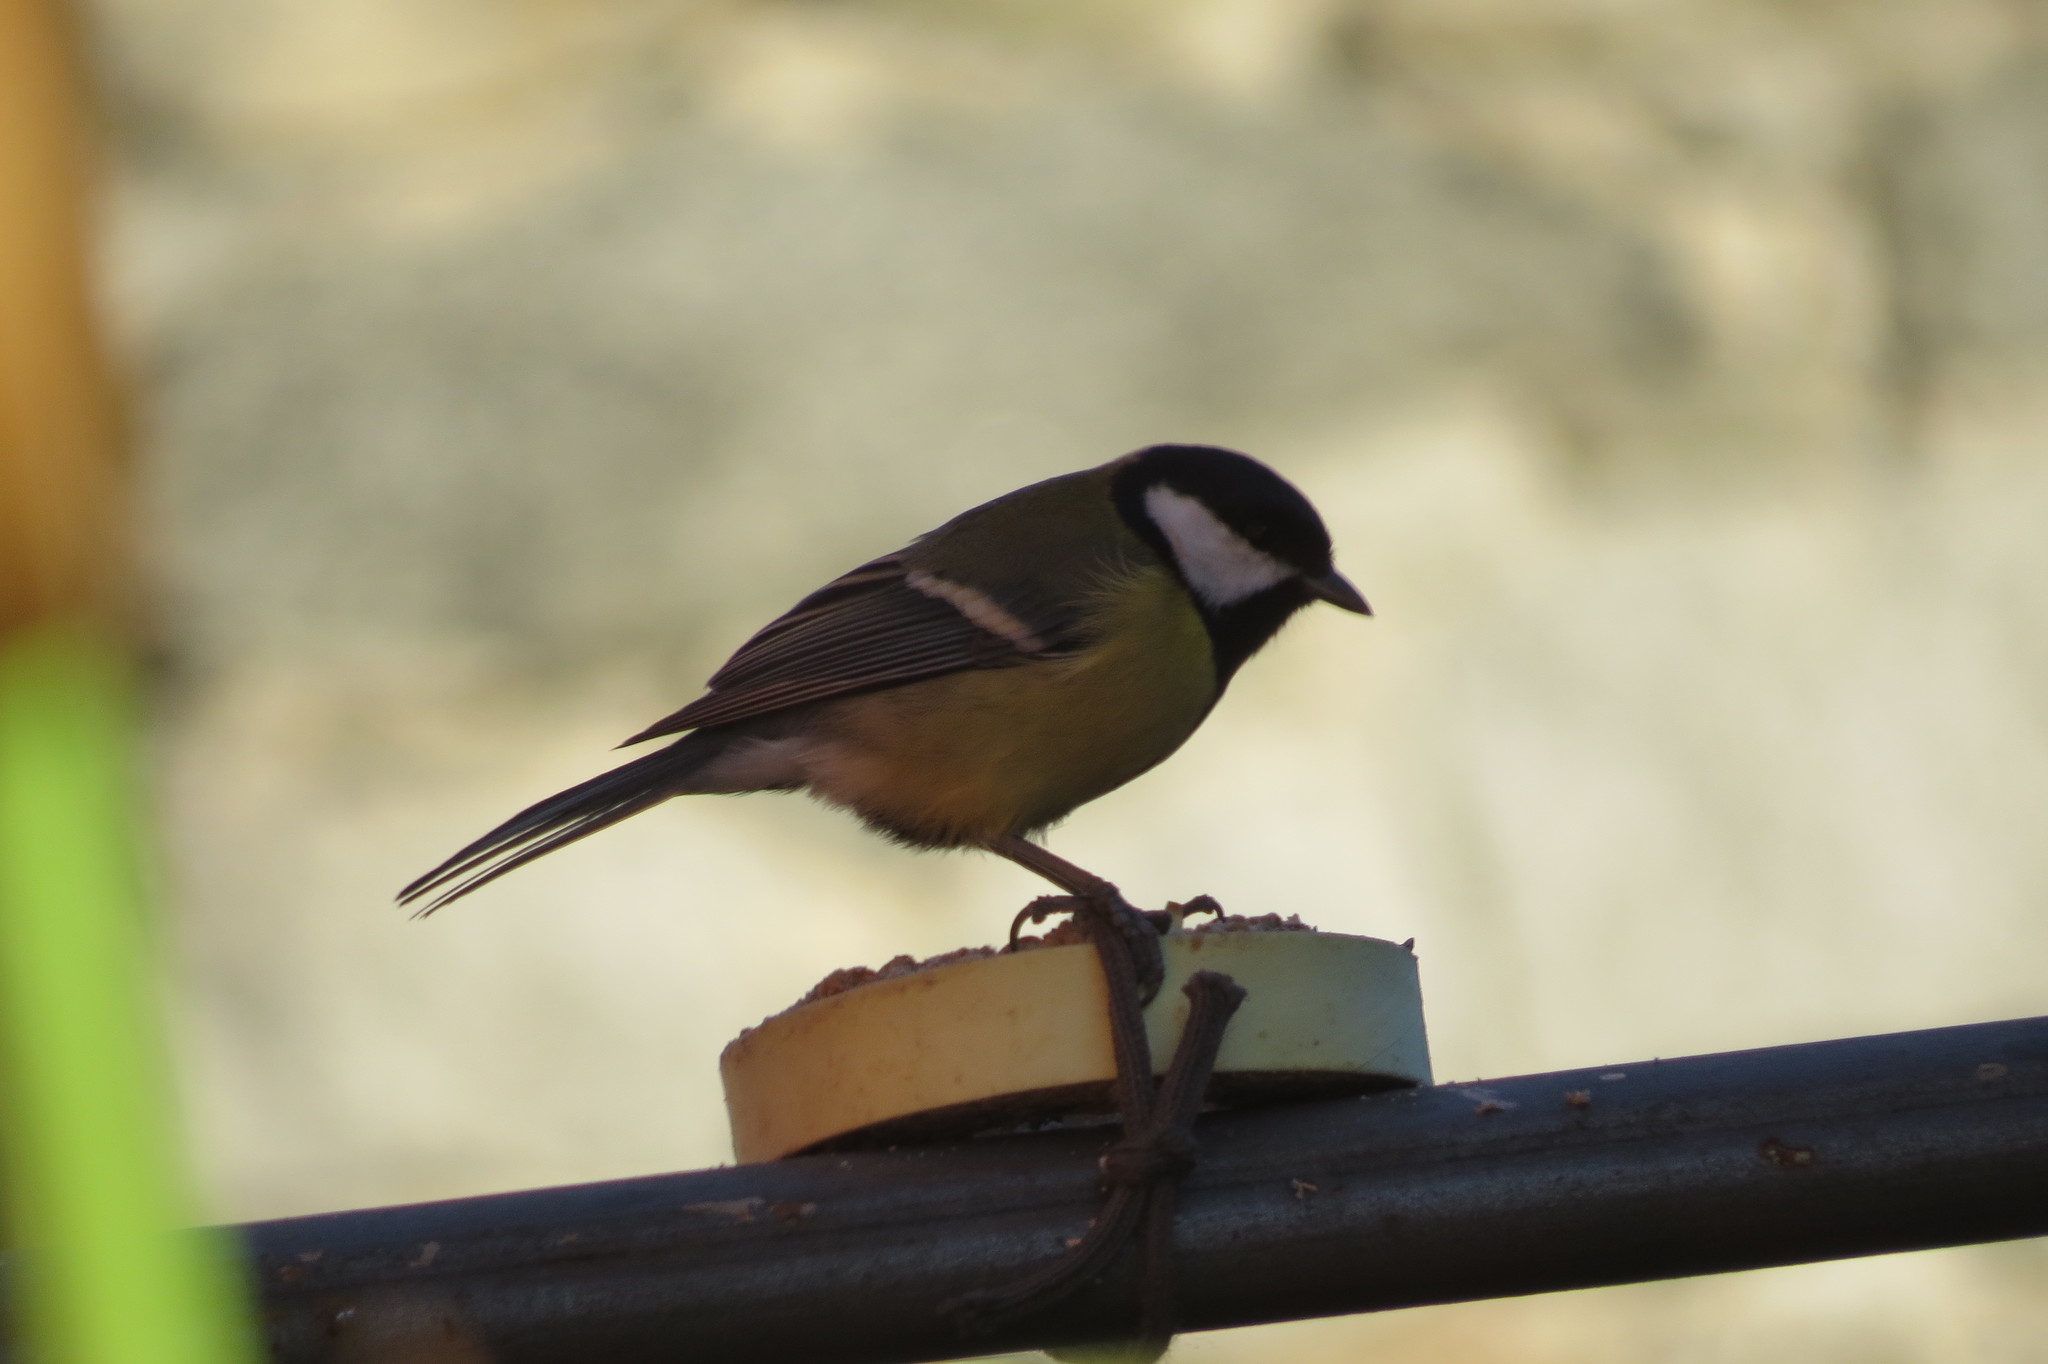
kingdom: Animalia
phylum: Chordata
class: Aves
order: Passeriformes
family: Paridae
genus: Parus
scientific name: Parus major
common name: Great tit
